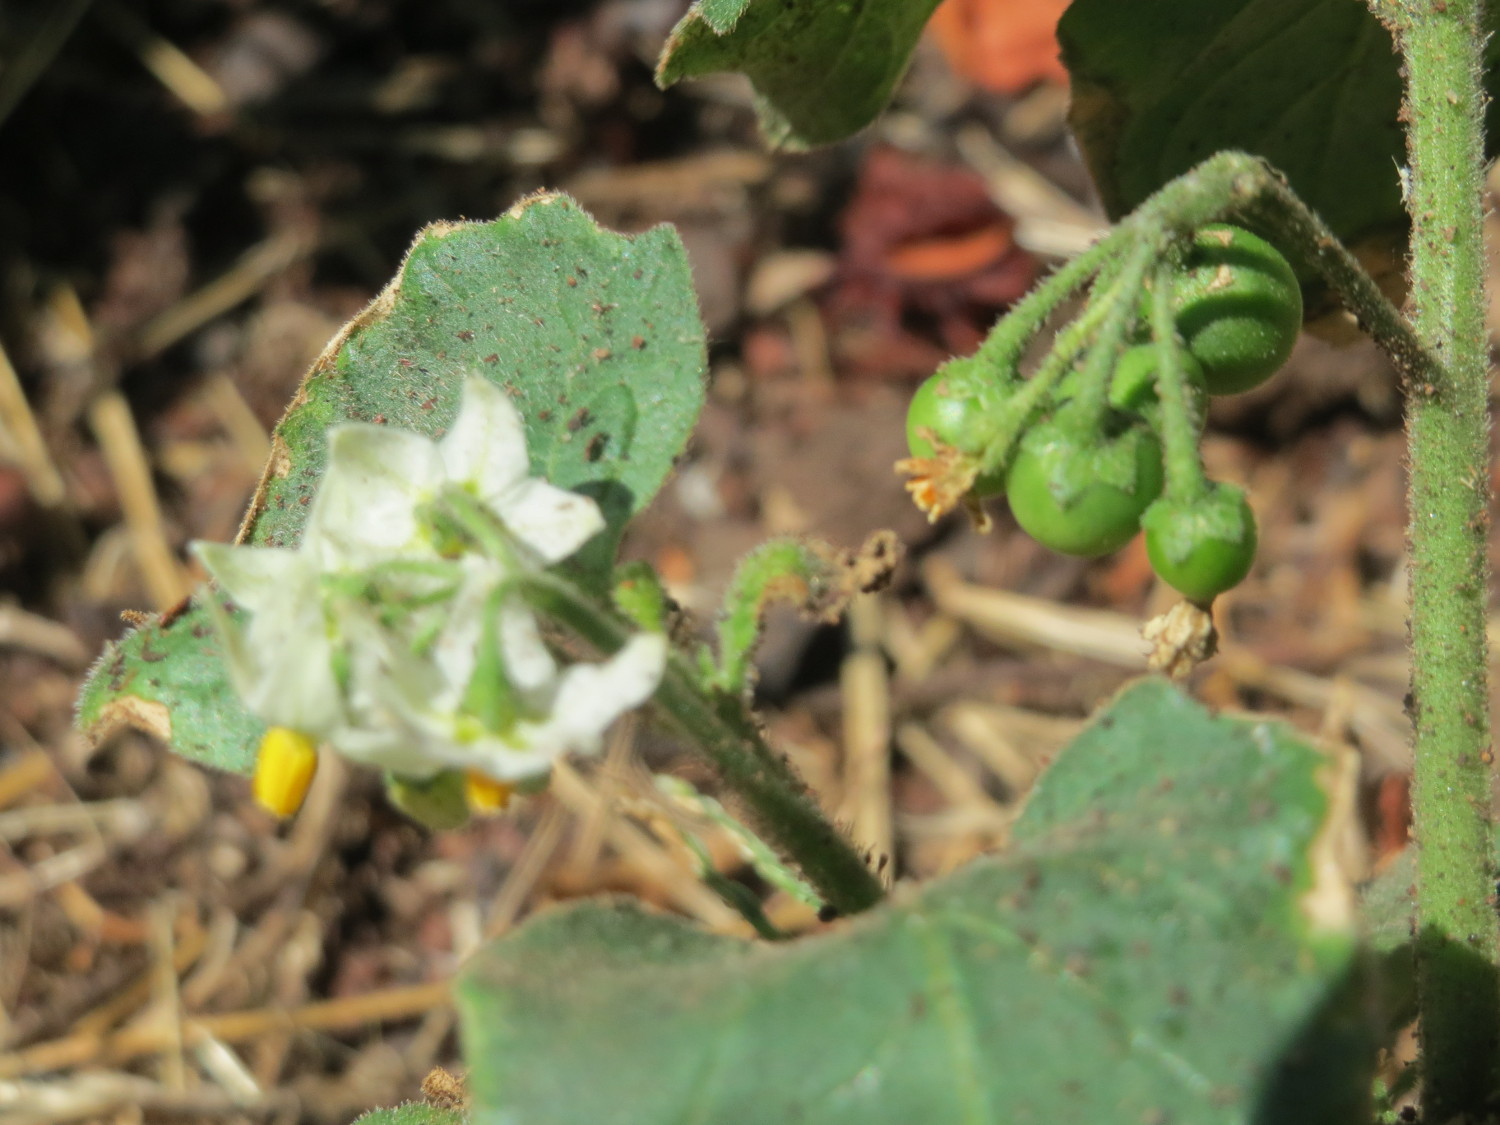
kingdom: Plantae
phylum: Tracheophyta
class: Magnoliopsida
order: Solanales
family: Solanaceae
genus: Solanum
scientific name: Solanum nigrum
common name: Black nightshade
